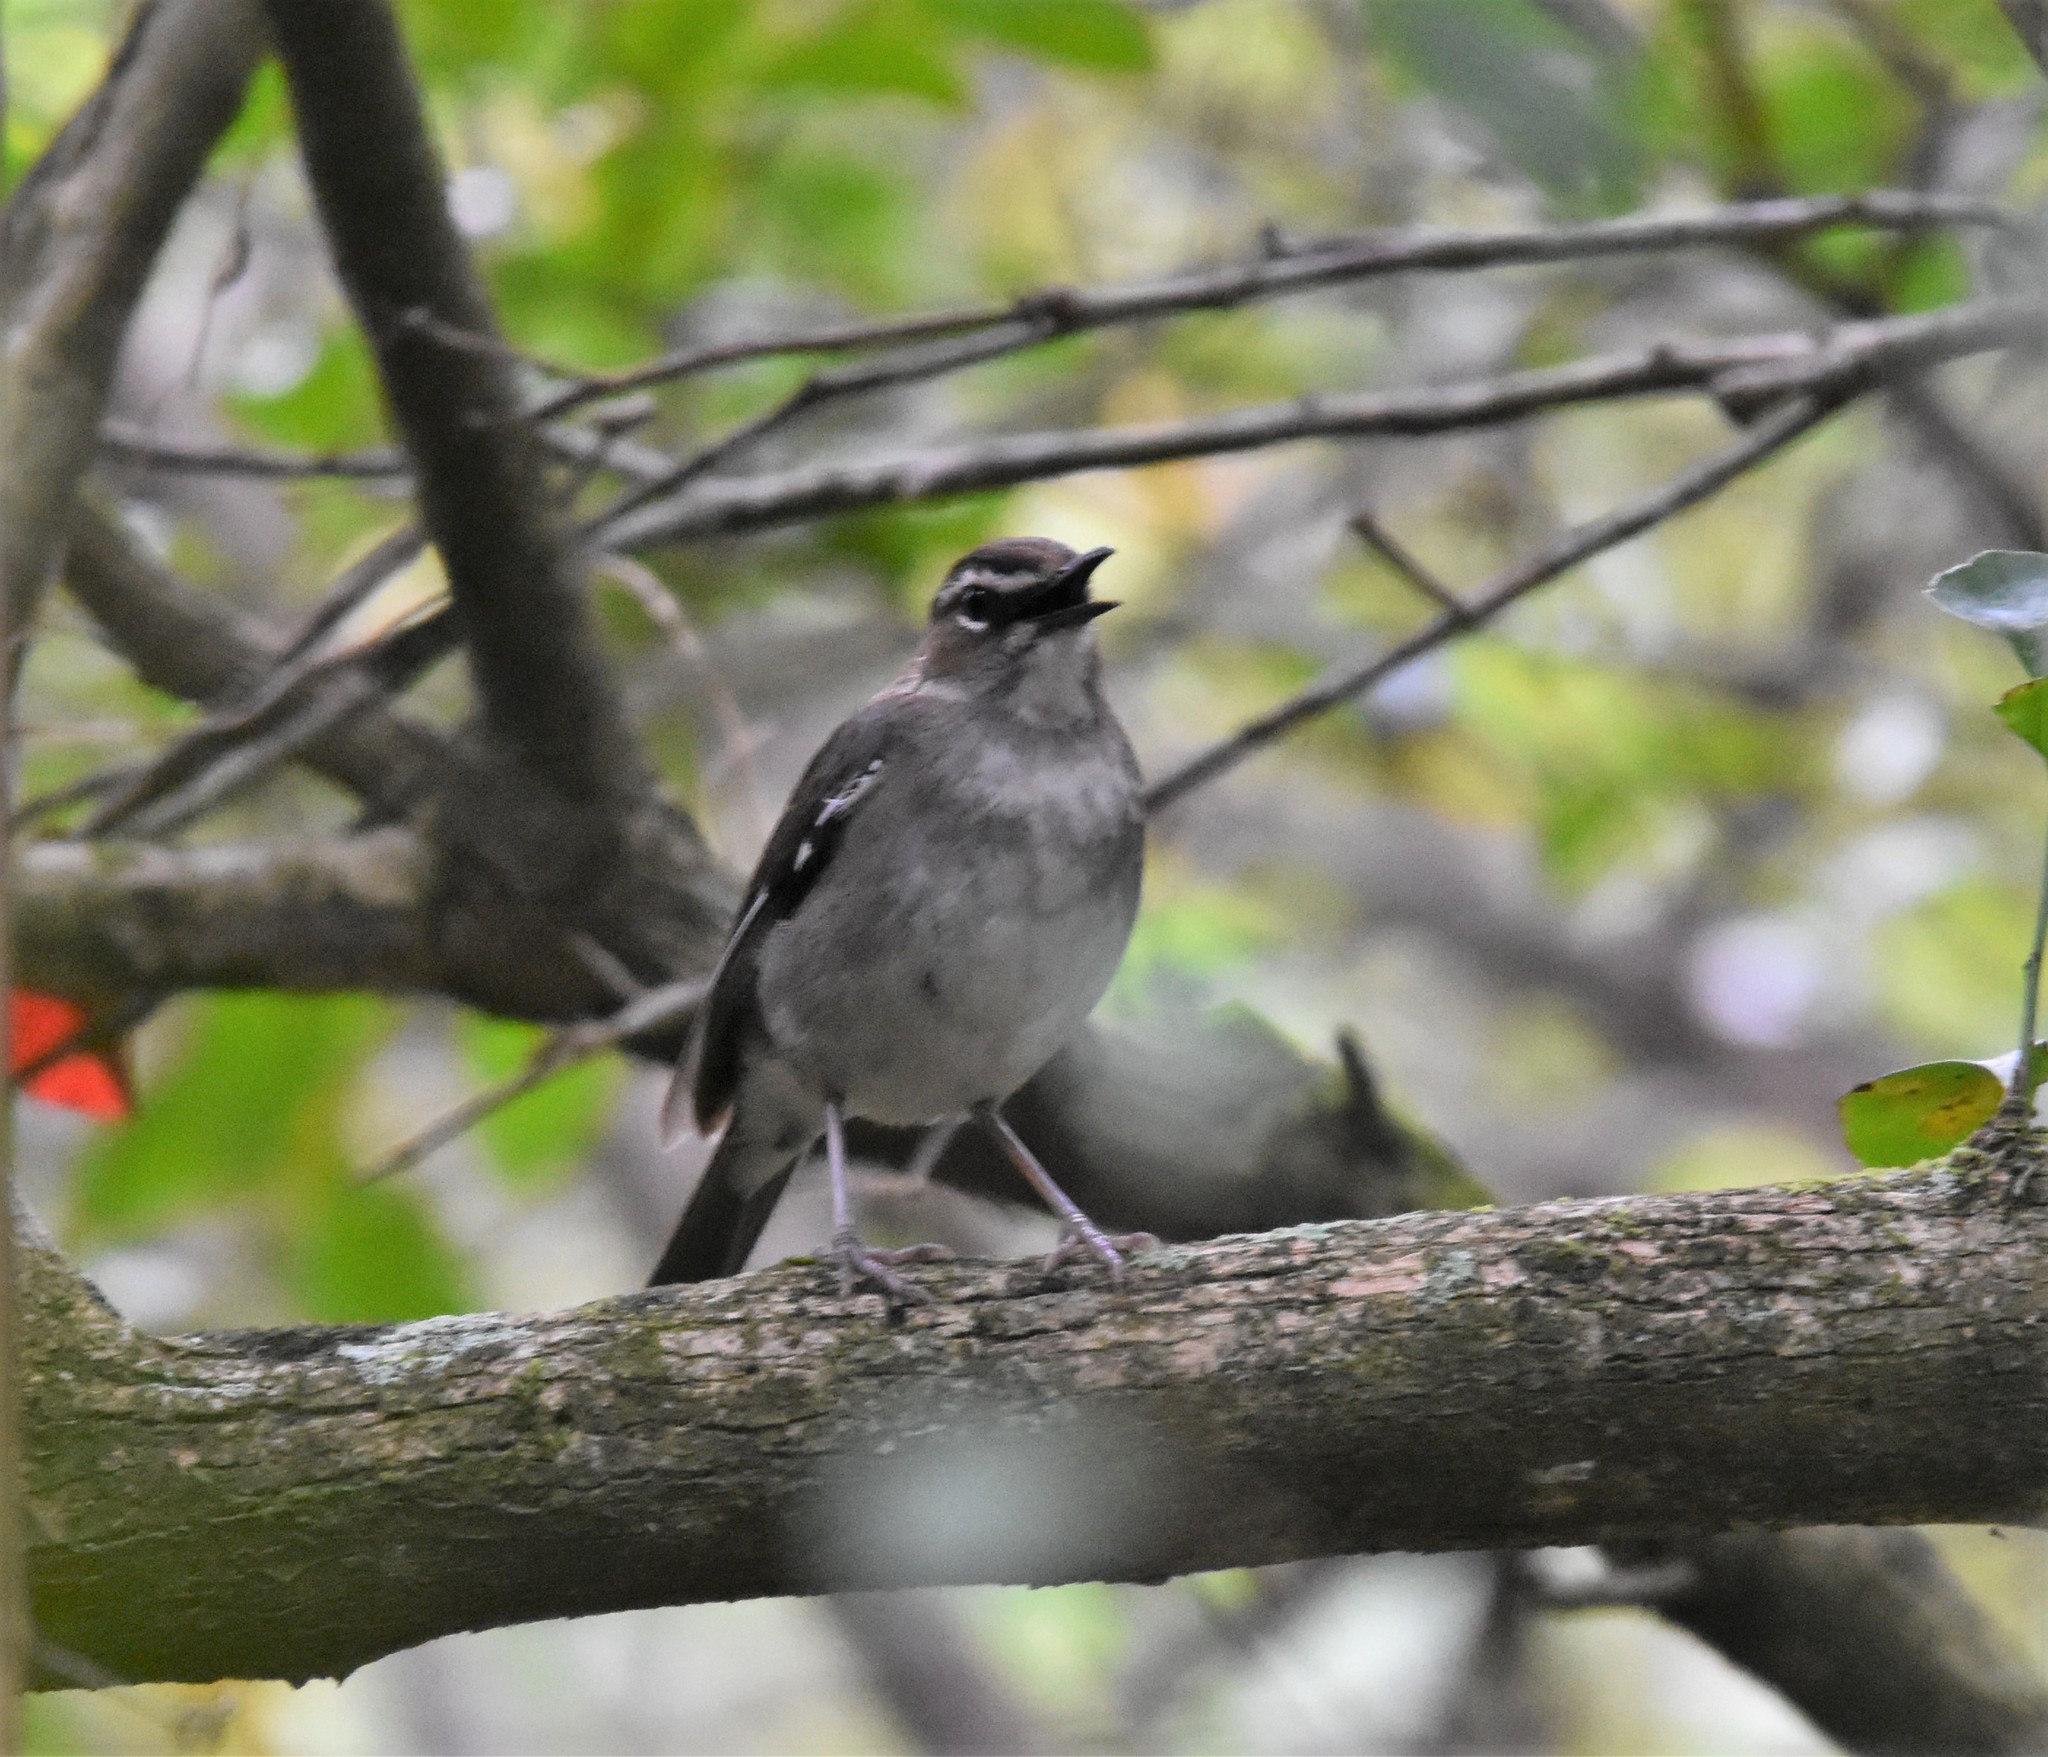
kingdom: Animalia
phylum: Chordata
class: Aves
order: Passeriformes
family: Muscicapidae
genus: Erythropygia
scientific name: Erythropygia signata
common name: Brown scrub robin
